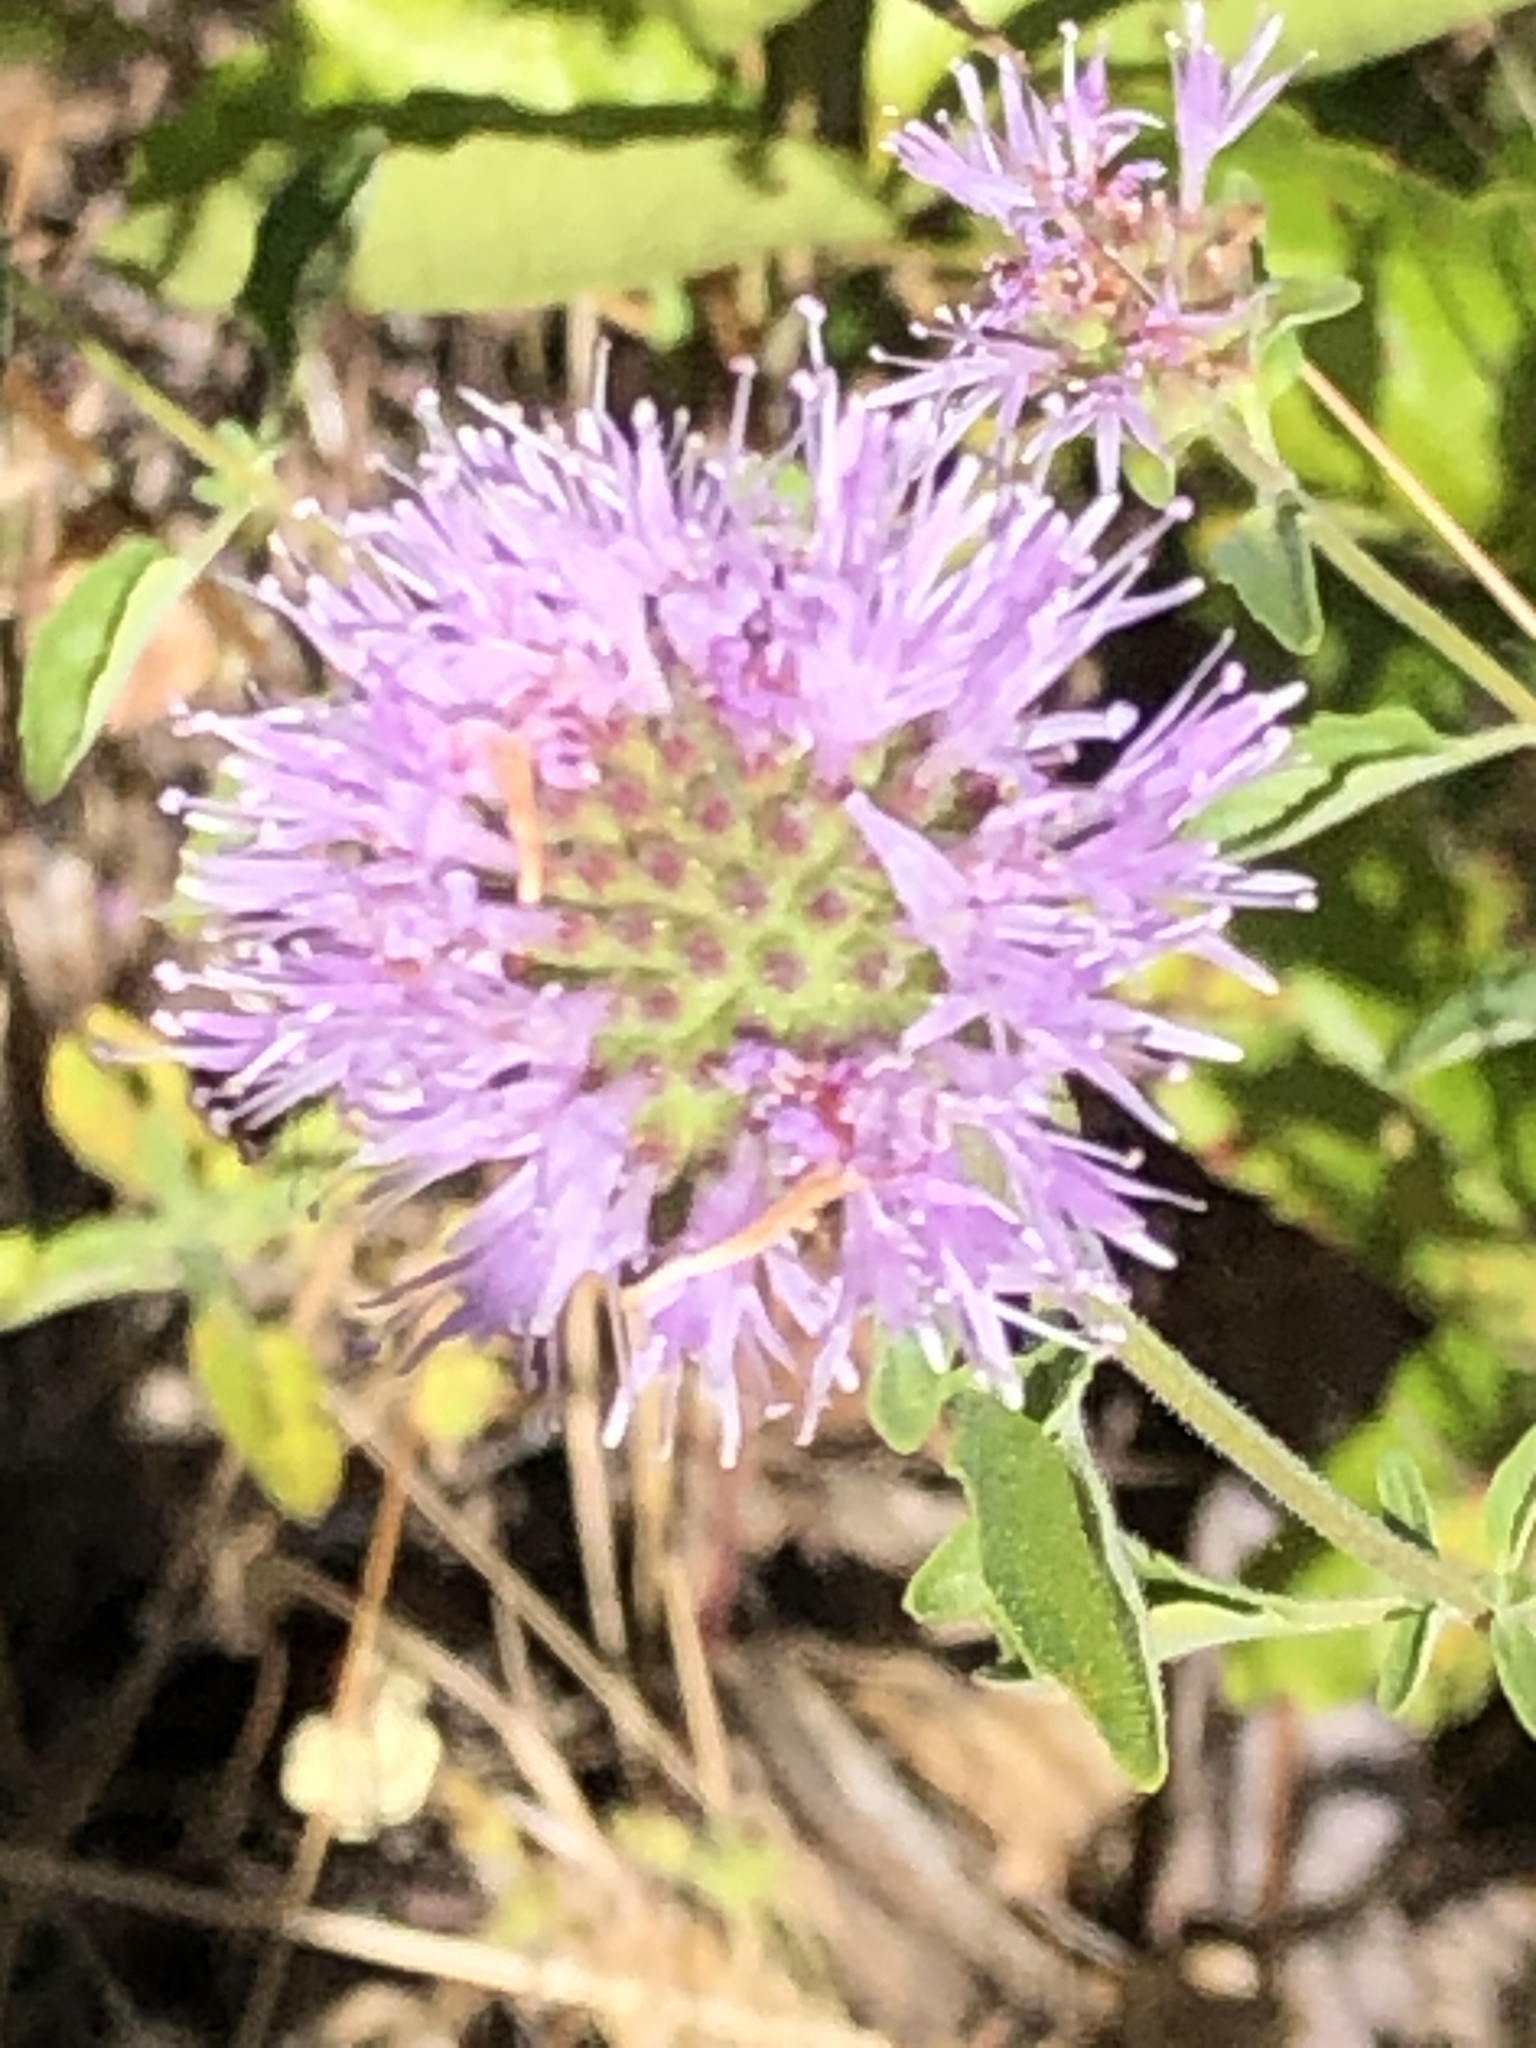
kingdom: Plantae
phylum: Tracheophyta
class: Magnoliopsida
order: Lamiales
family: Lamiaceae
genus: Monardella
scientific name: Monardella odoratissima
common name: Pacific monardella
